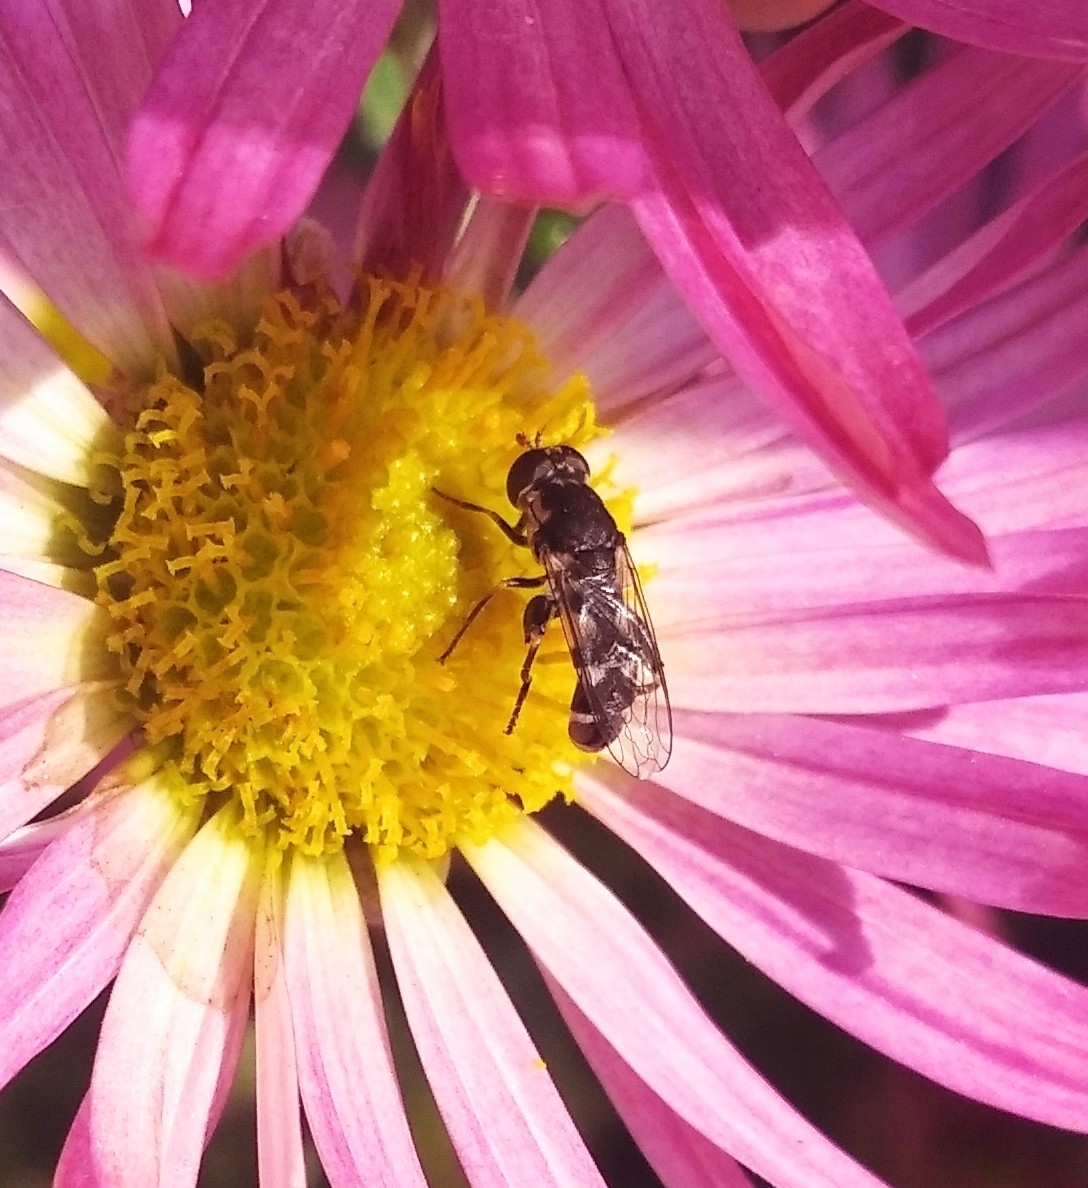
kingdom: Animalia
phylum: Arthropoda
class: Insecta
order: Diptera
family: Syrphidae
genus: Syritta
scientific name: Syritta pipiens
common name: Hover fly
